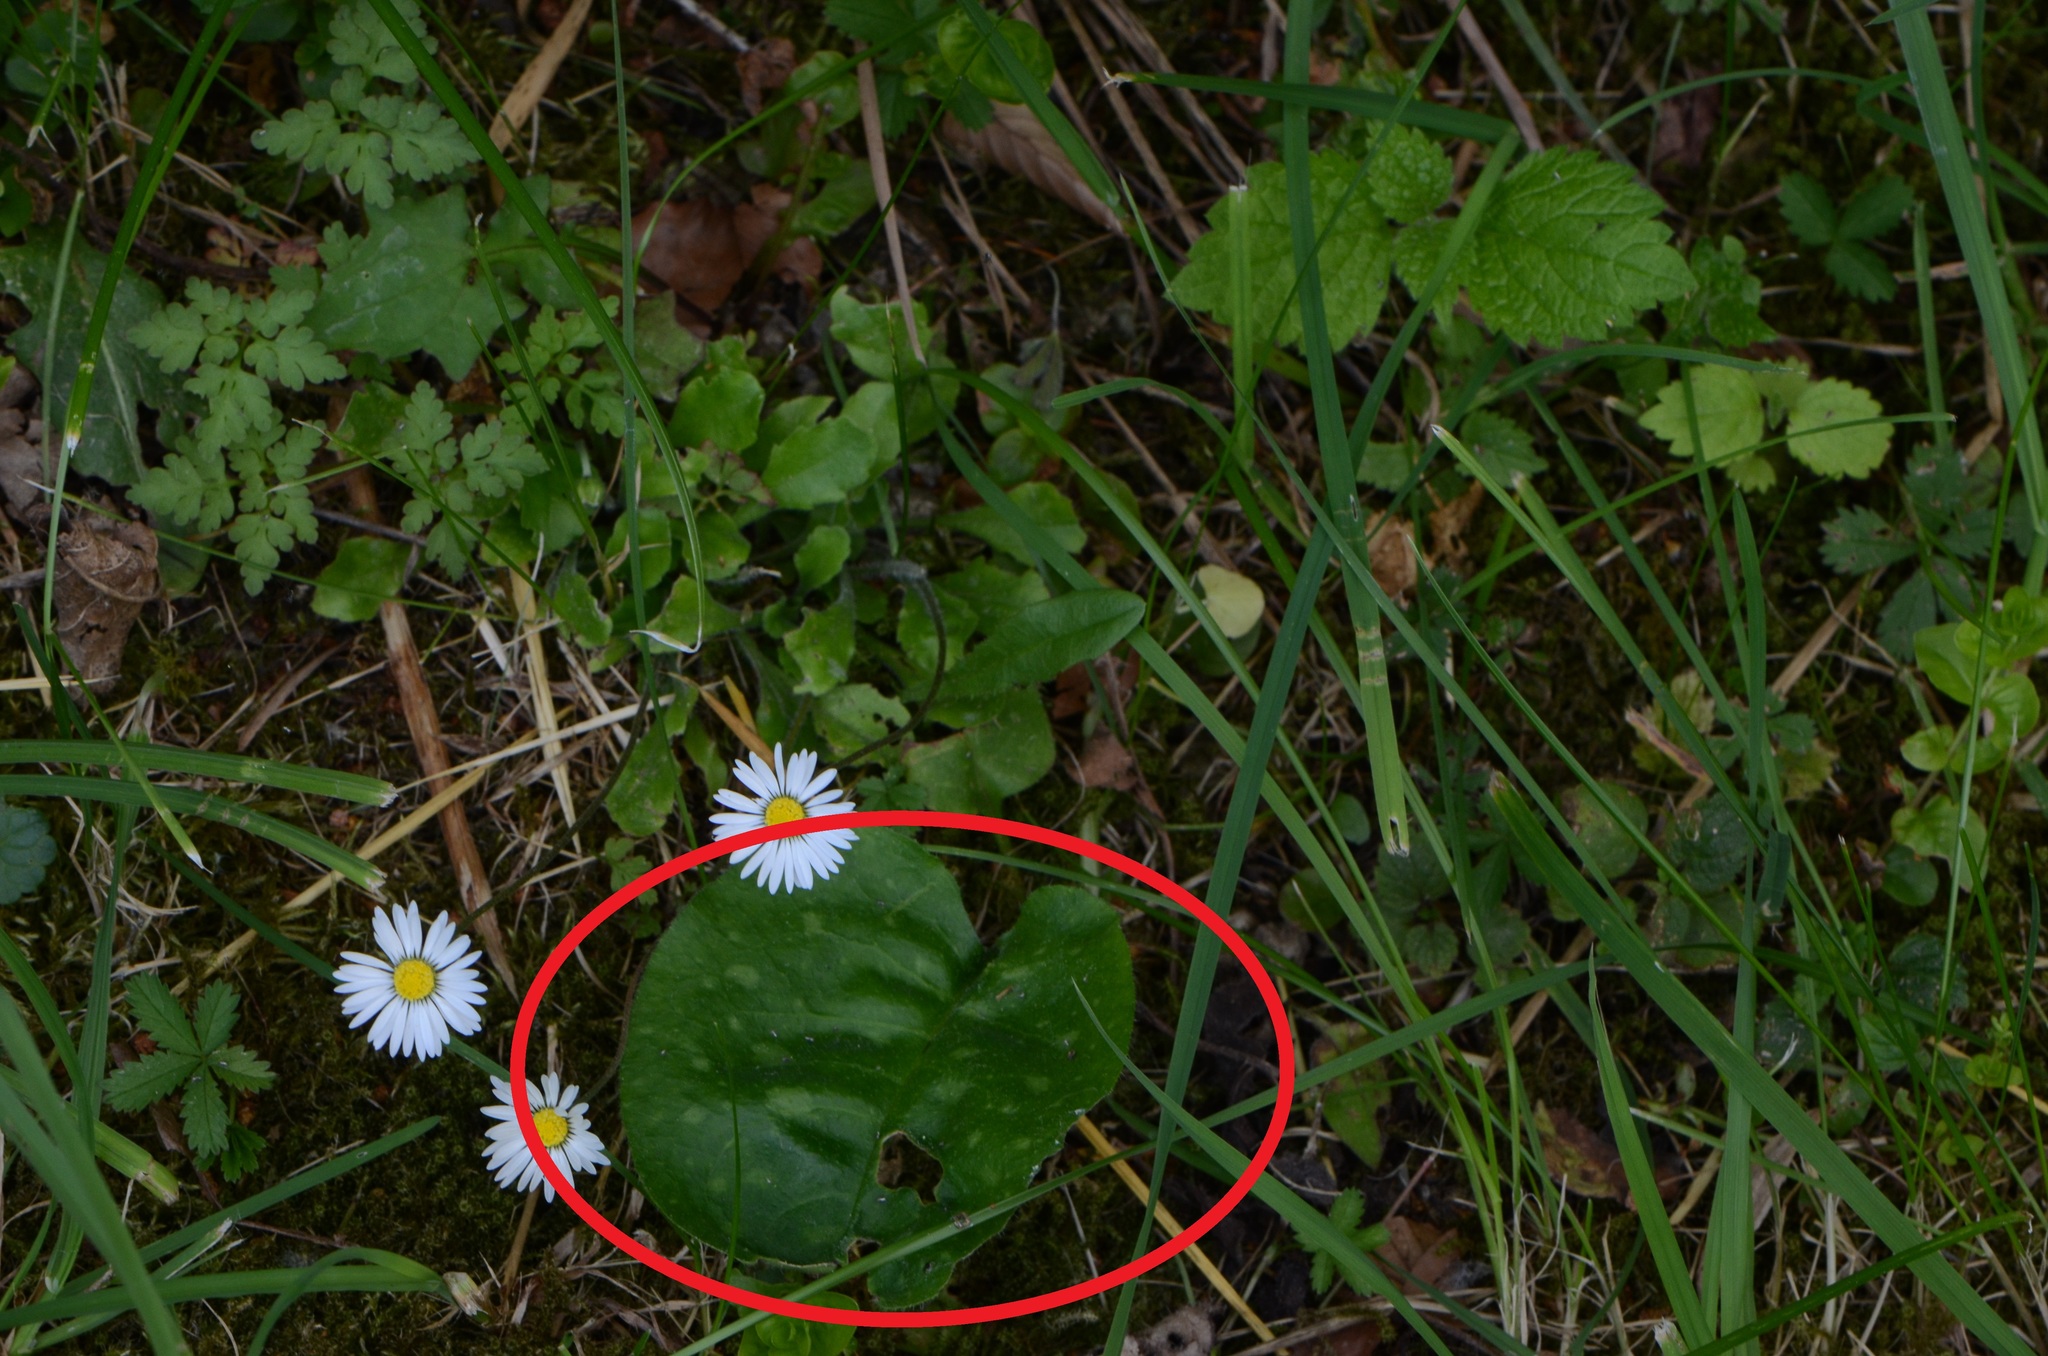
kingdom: Plantae
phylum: Tracheophyta
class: Magnoliopsida
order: Boraginales
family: Boraginaceae
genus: Pulmonaria
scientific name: Pulmonaria officinalis
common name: Lungwort
